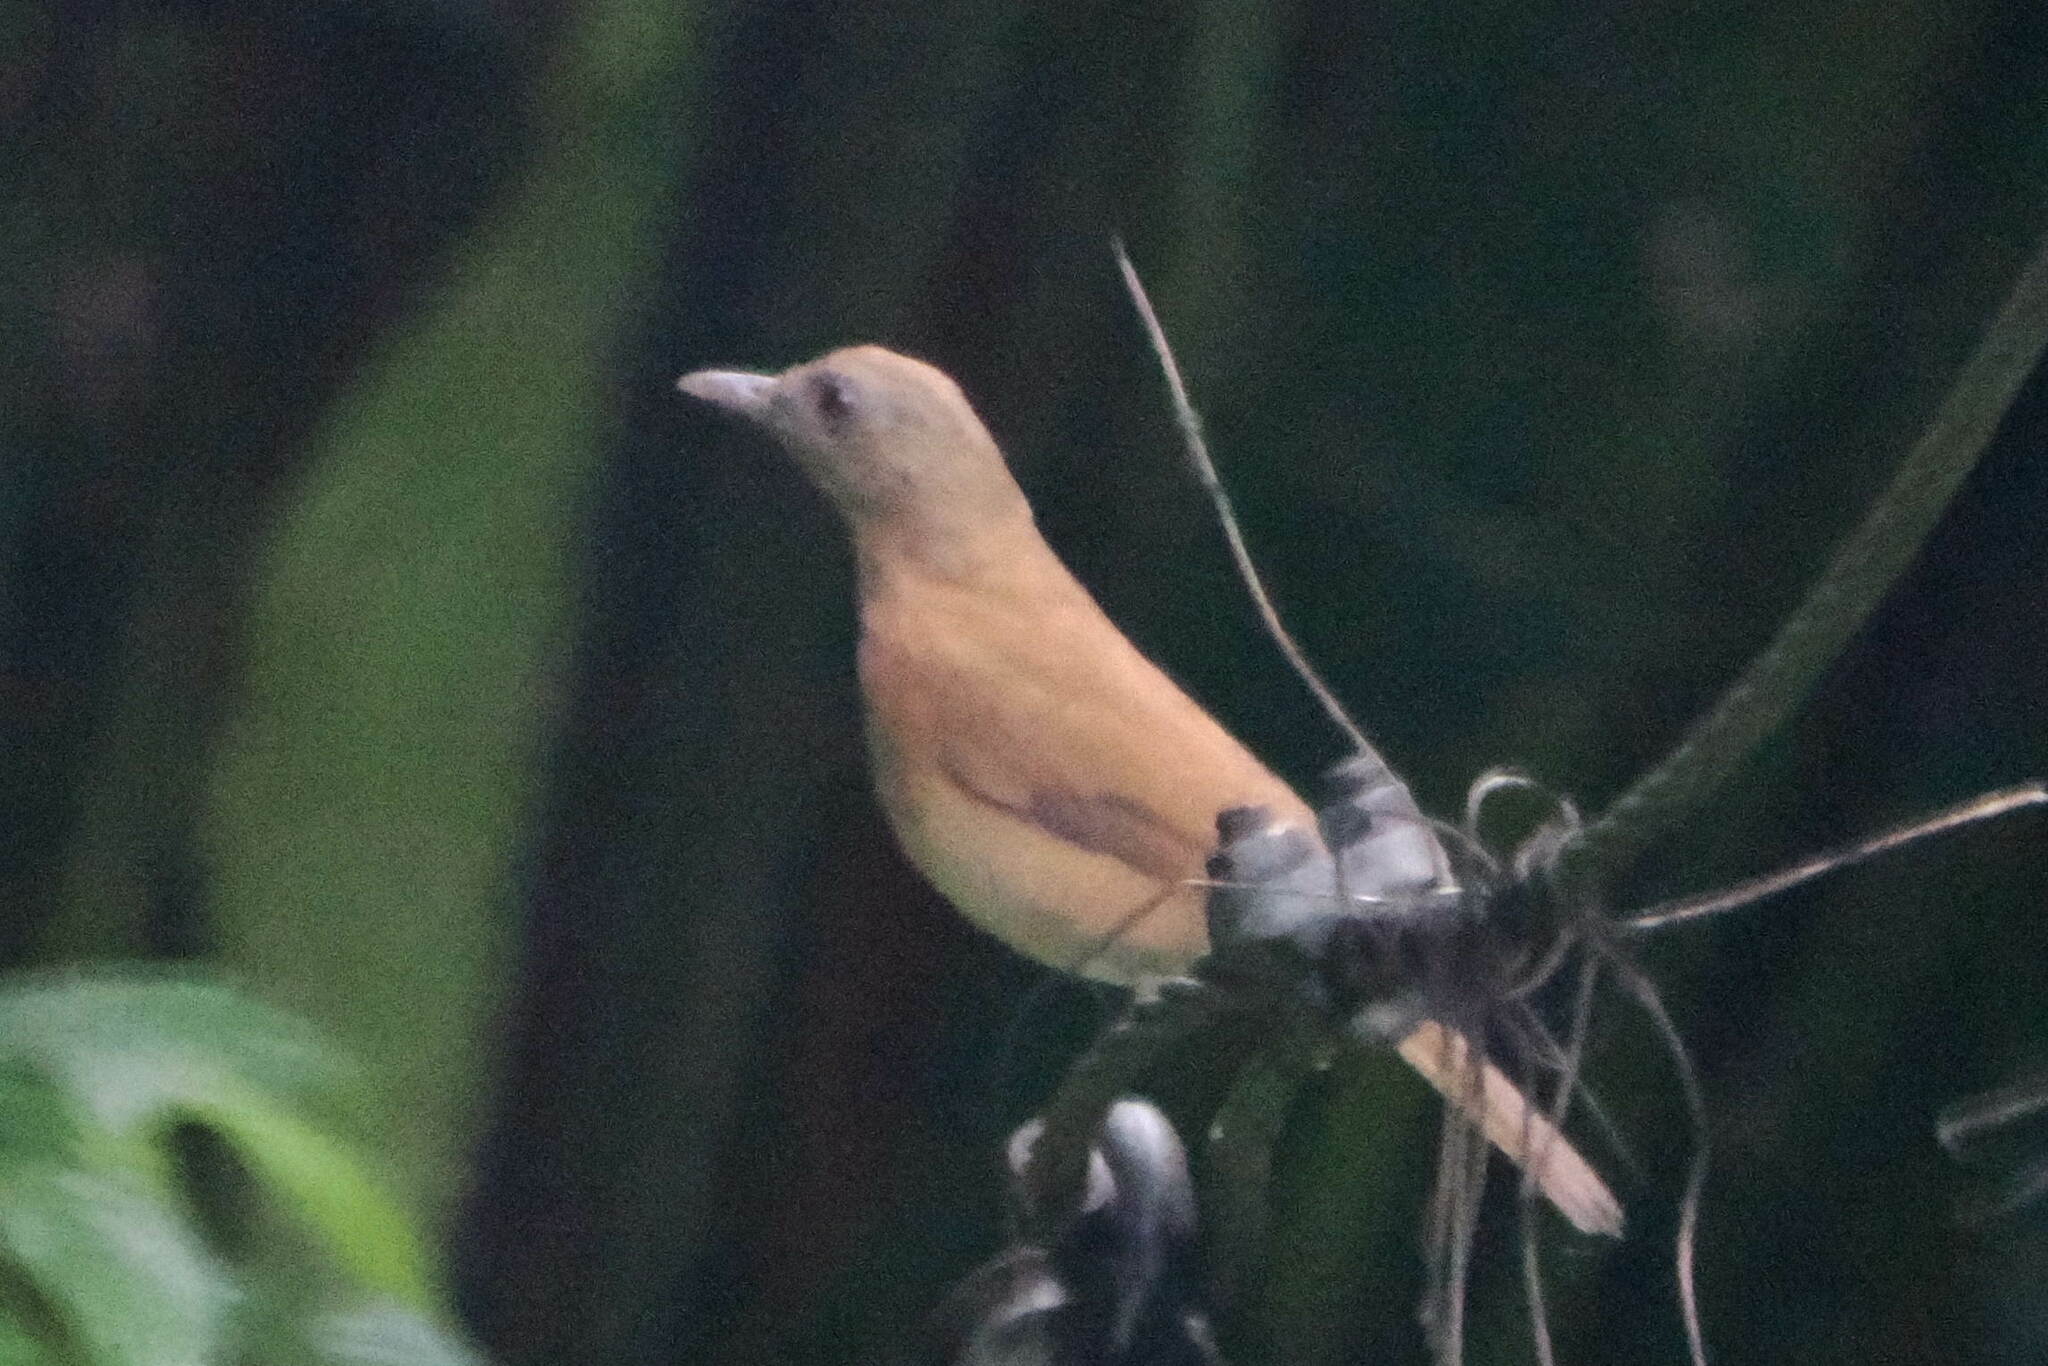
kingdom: Animalia
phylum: Chordata
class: Aves
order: Passeriformes
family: Turdidae
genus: Turdus
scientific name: Turdus fumigatus
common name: Cocoa thrush
